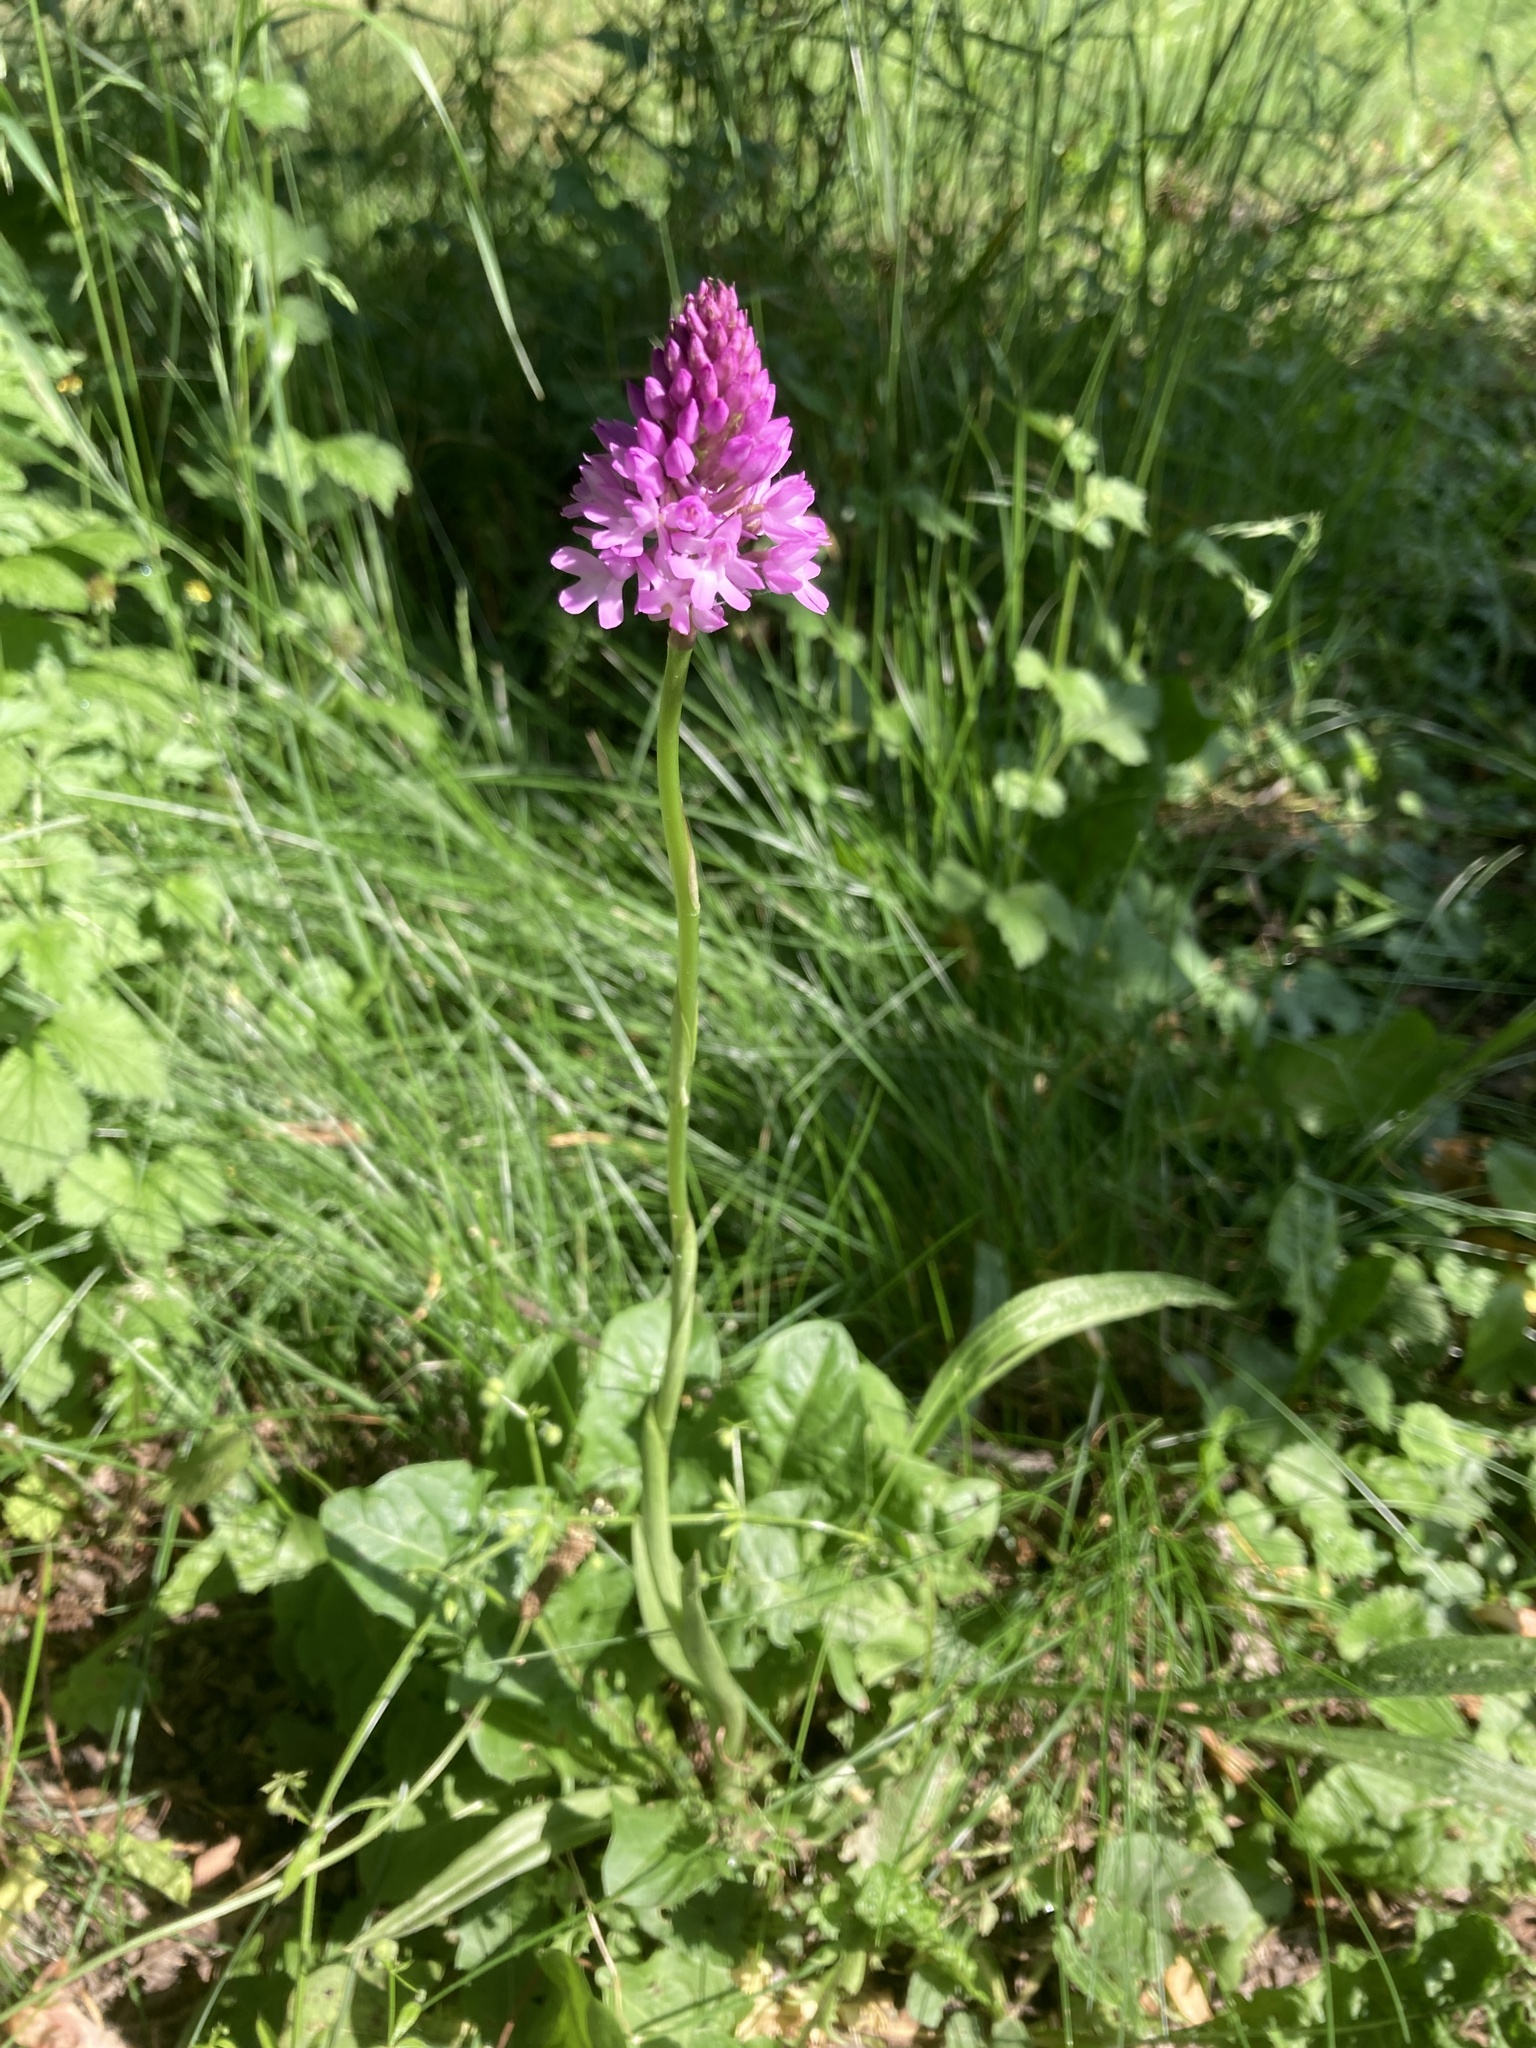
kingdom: Plantae
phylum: Tracheophyta
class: Liliopsida
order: Asparagales
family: Orchidaceae
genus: Anacamptis
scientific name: Anacamptis pyramidalis
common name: Pyramidal orchid
